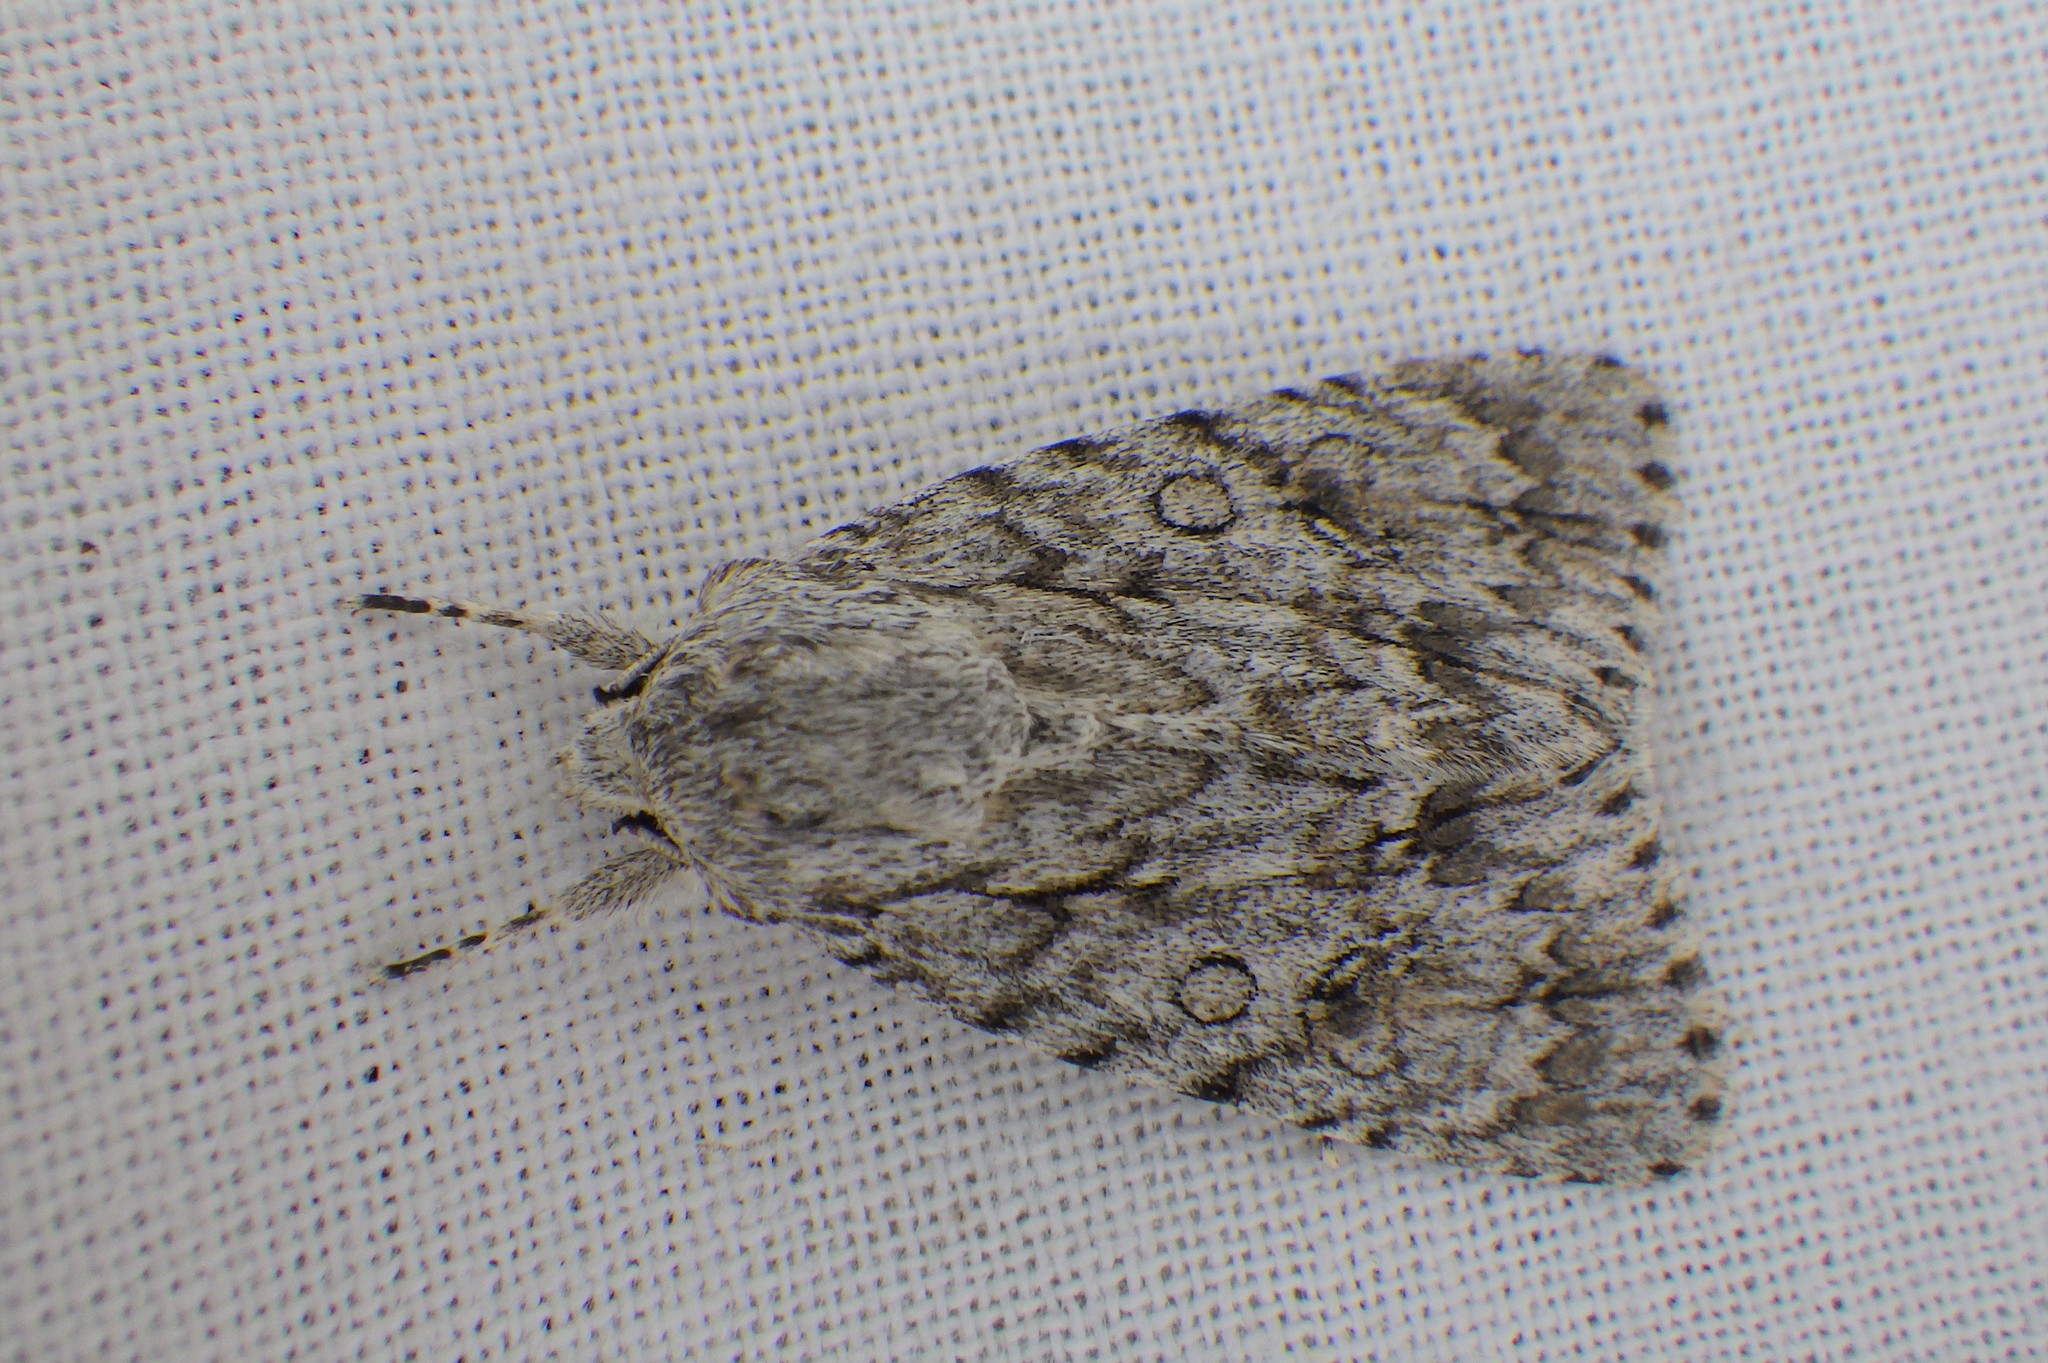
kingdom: Animalia
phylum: Arthropoda
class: Insecta
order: Lepidoptera
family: Noctuidae
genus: Acronicta
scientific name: Acronicta aceris
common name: Sycamore
